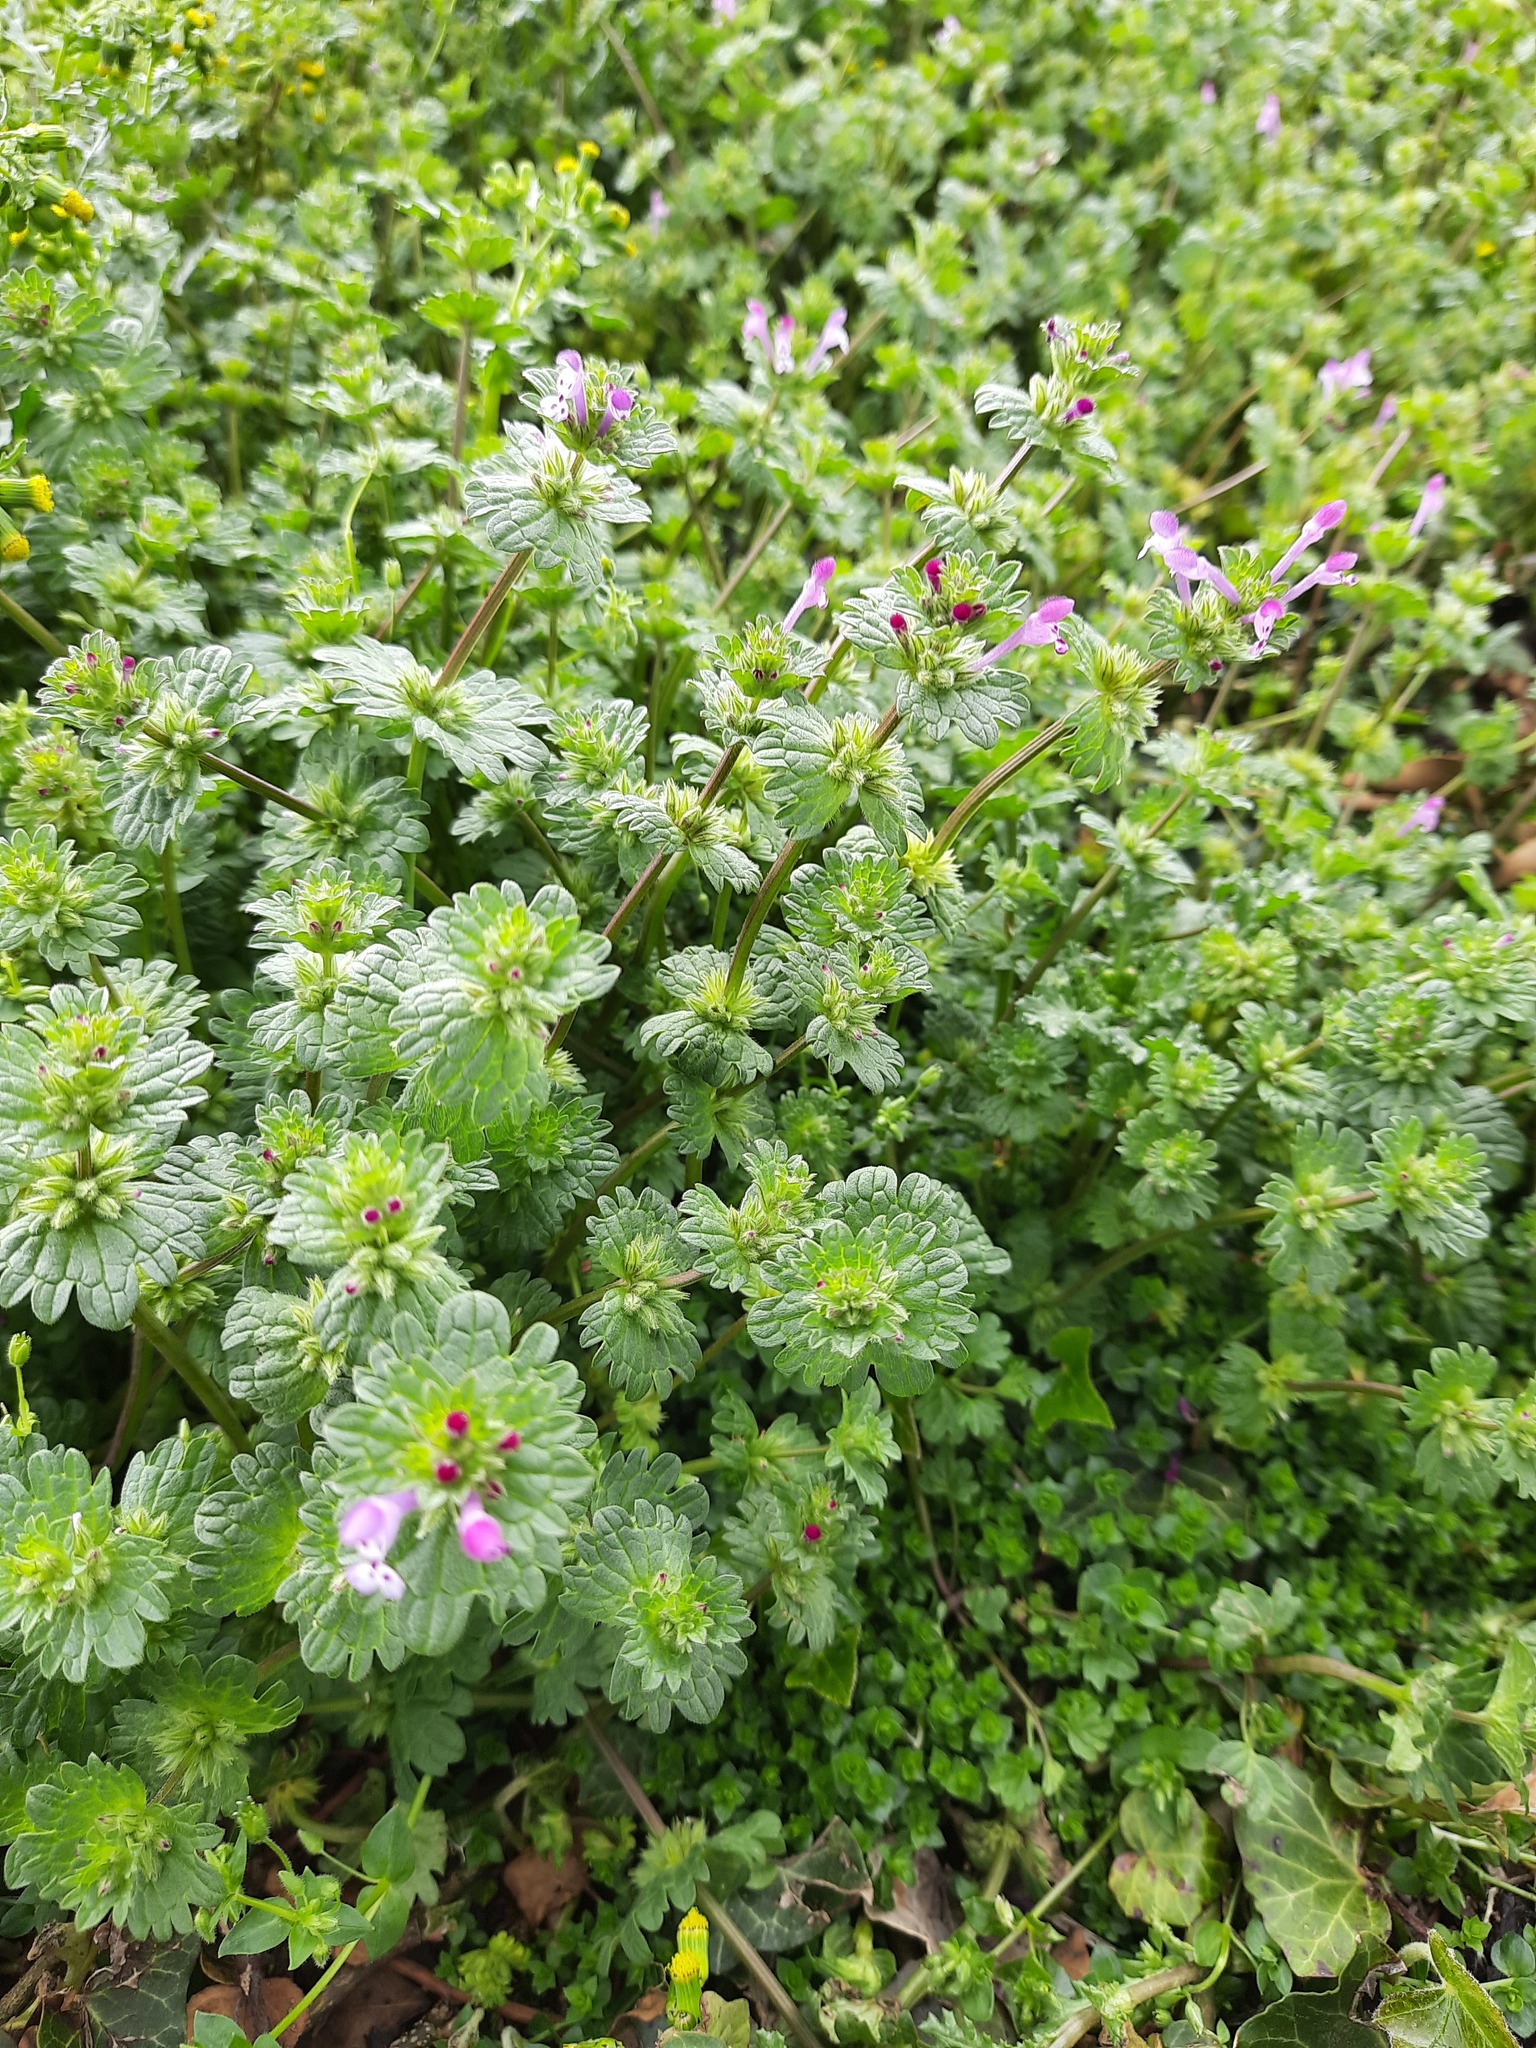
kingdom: Plantae
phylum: Tracheophyta
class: Magnoliopsida
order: Lamiales
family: Lamiaceae
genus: Lamium
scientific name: Lamium amplexicaule
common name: Henbit dead-nettle
